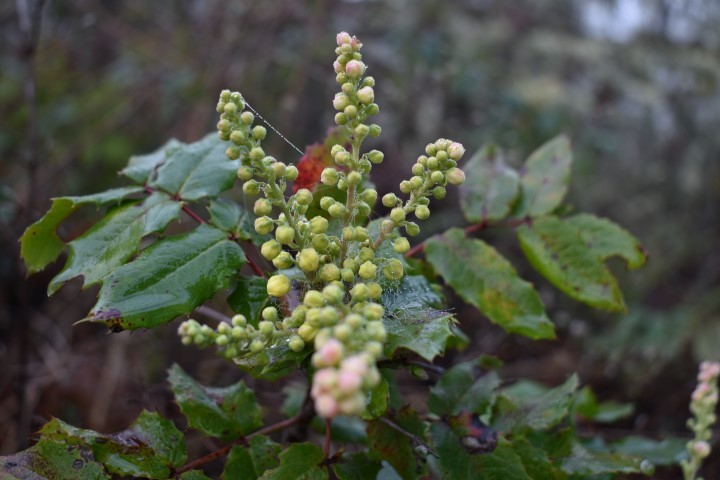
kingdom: Plantae
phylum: Tracheophyta
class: Magnoliopsida
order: Ranunculales
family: Berberidaceae
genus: Mahonia
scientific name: Mahonia aquifolium
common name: Oregon-grape
